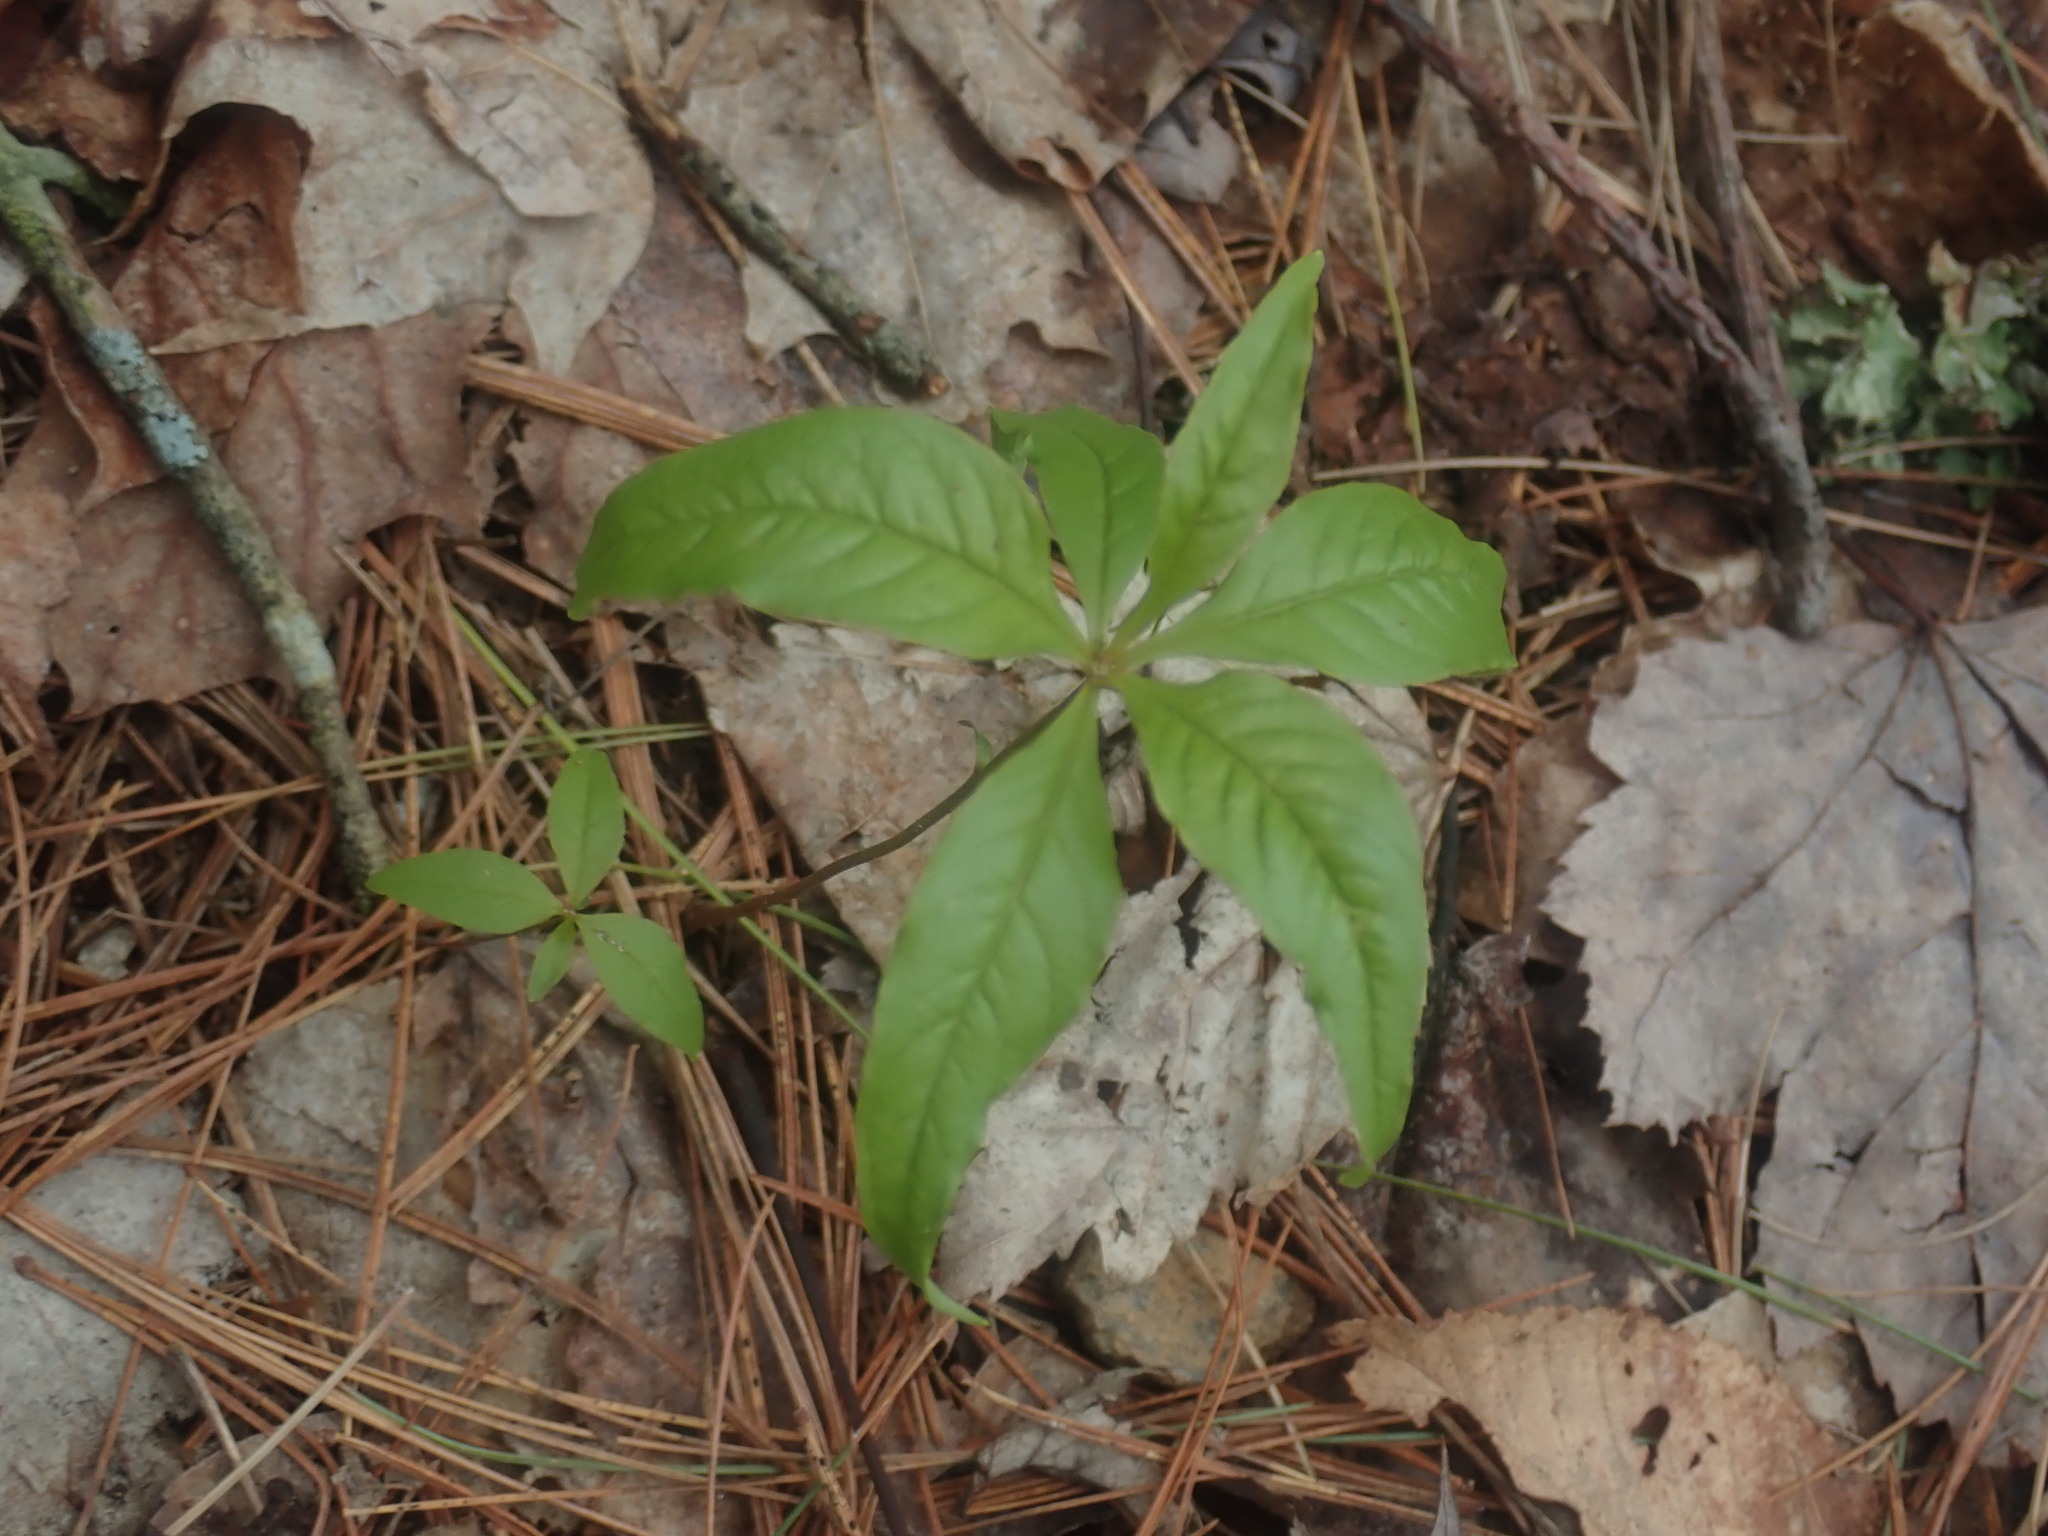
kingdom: Plantae
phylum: Tracheophyta
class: Magnoliopsida
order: Ericales
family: Primulaceae
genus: Lysimachia
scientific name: Lysimachia borealis
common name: American starflower
